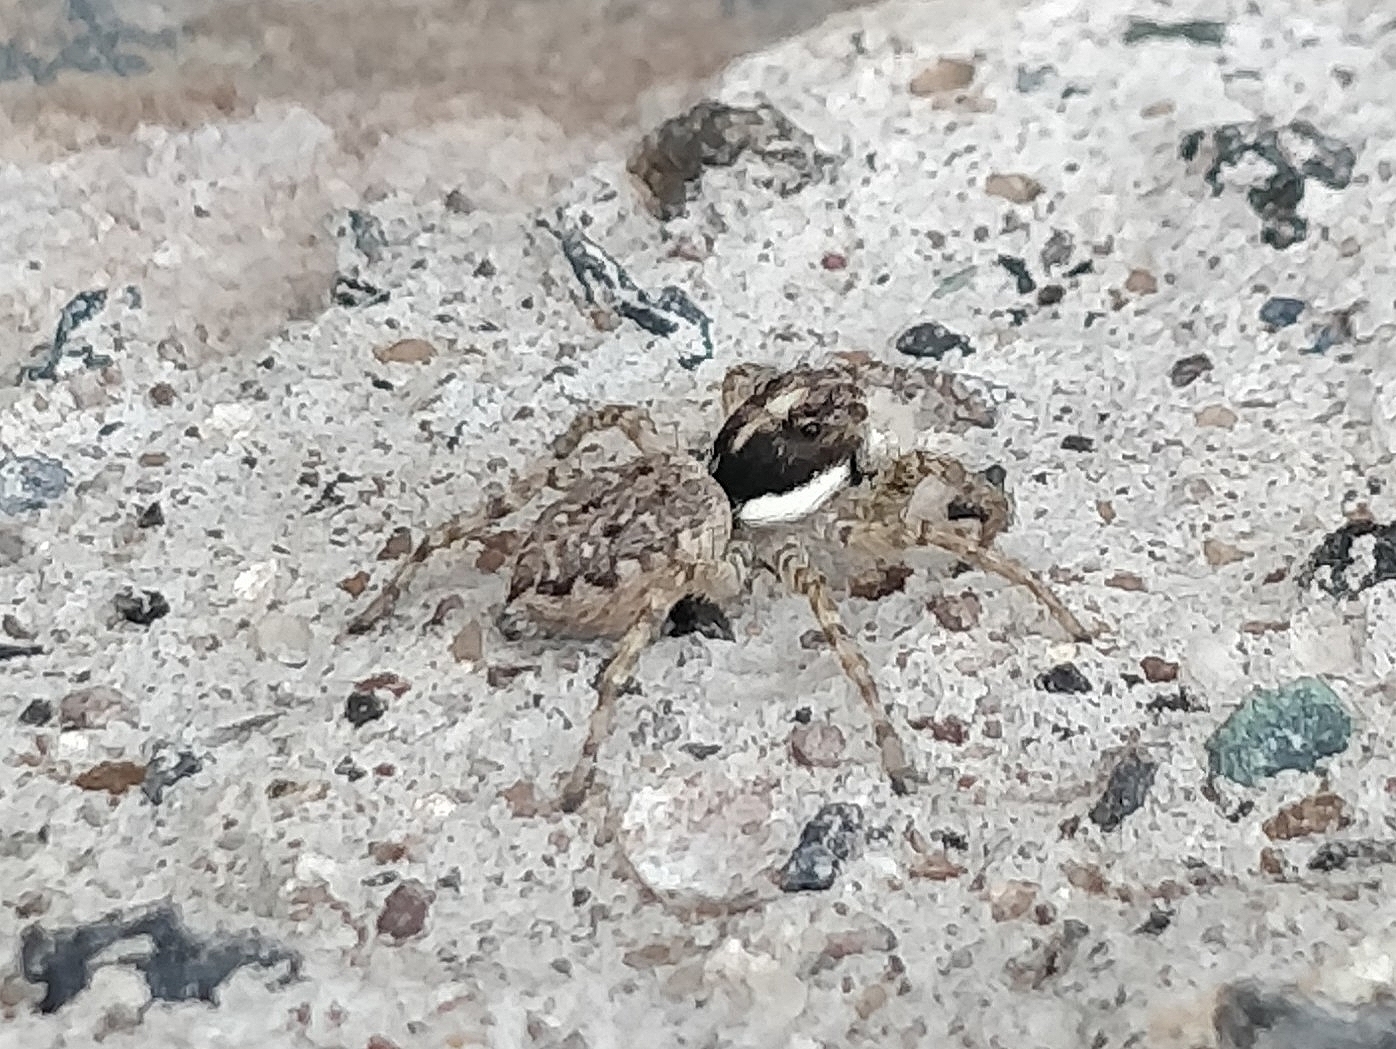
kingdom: Animalia
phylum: Arthropoda
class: Arachnida
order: Araneae
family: Salticidae
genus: Menemerus
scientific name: Menemerus semilimbatus
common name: Jumping spider
